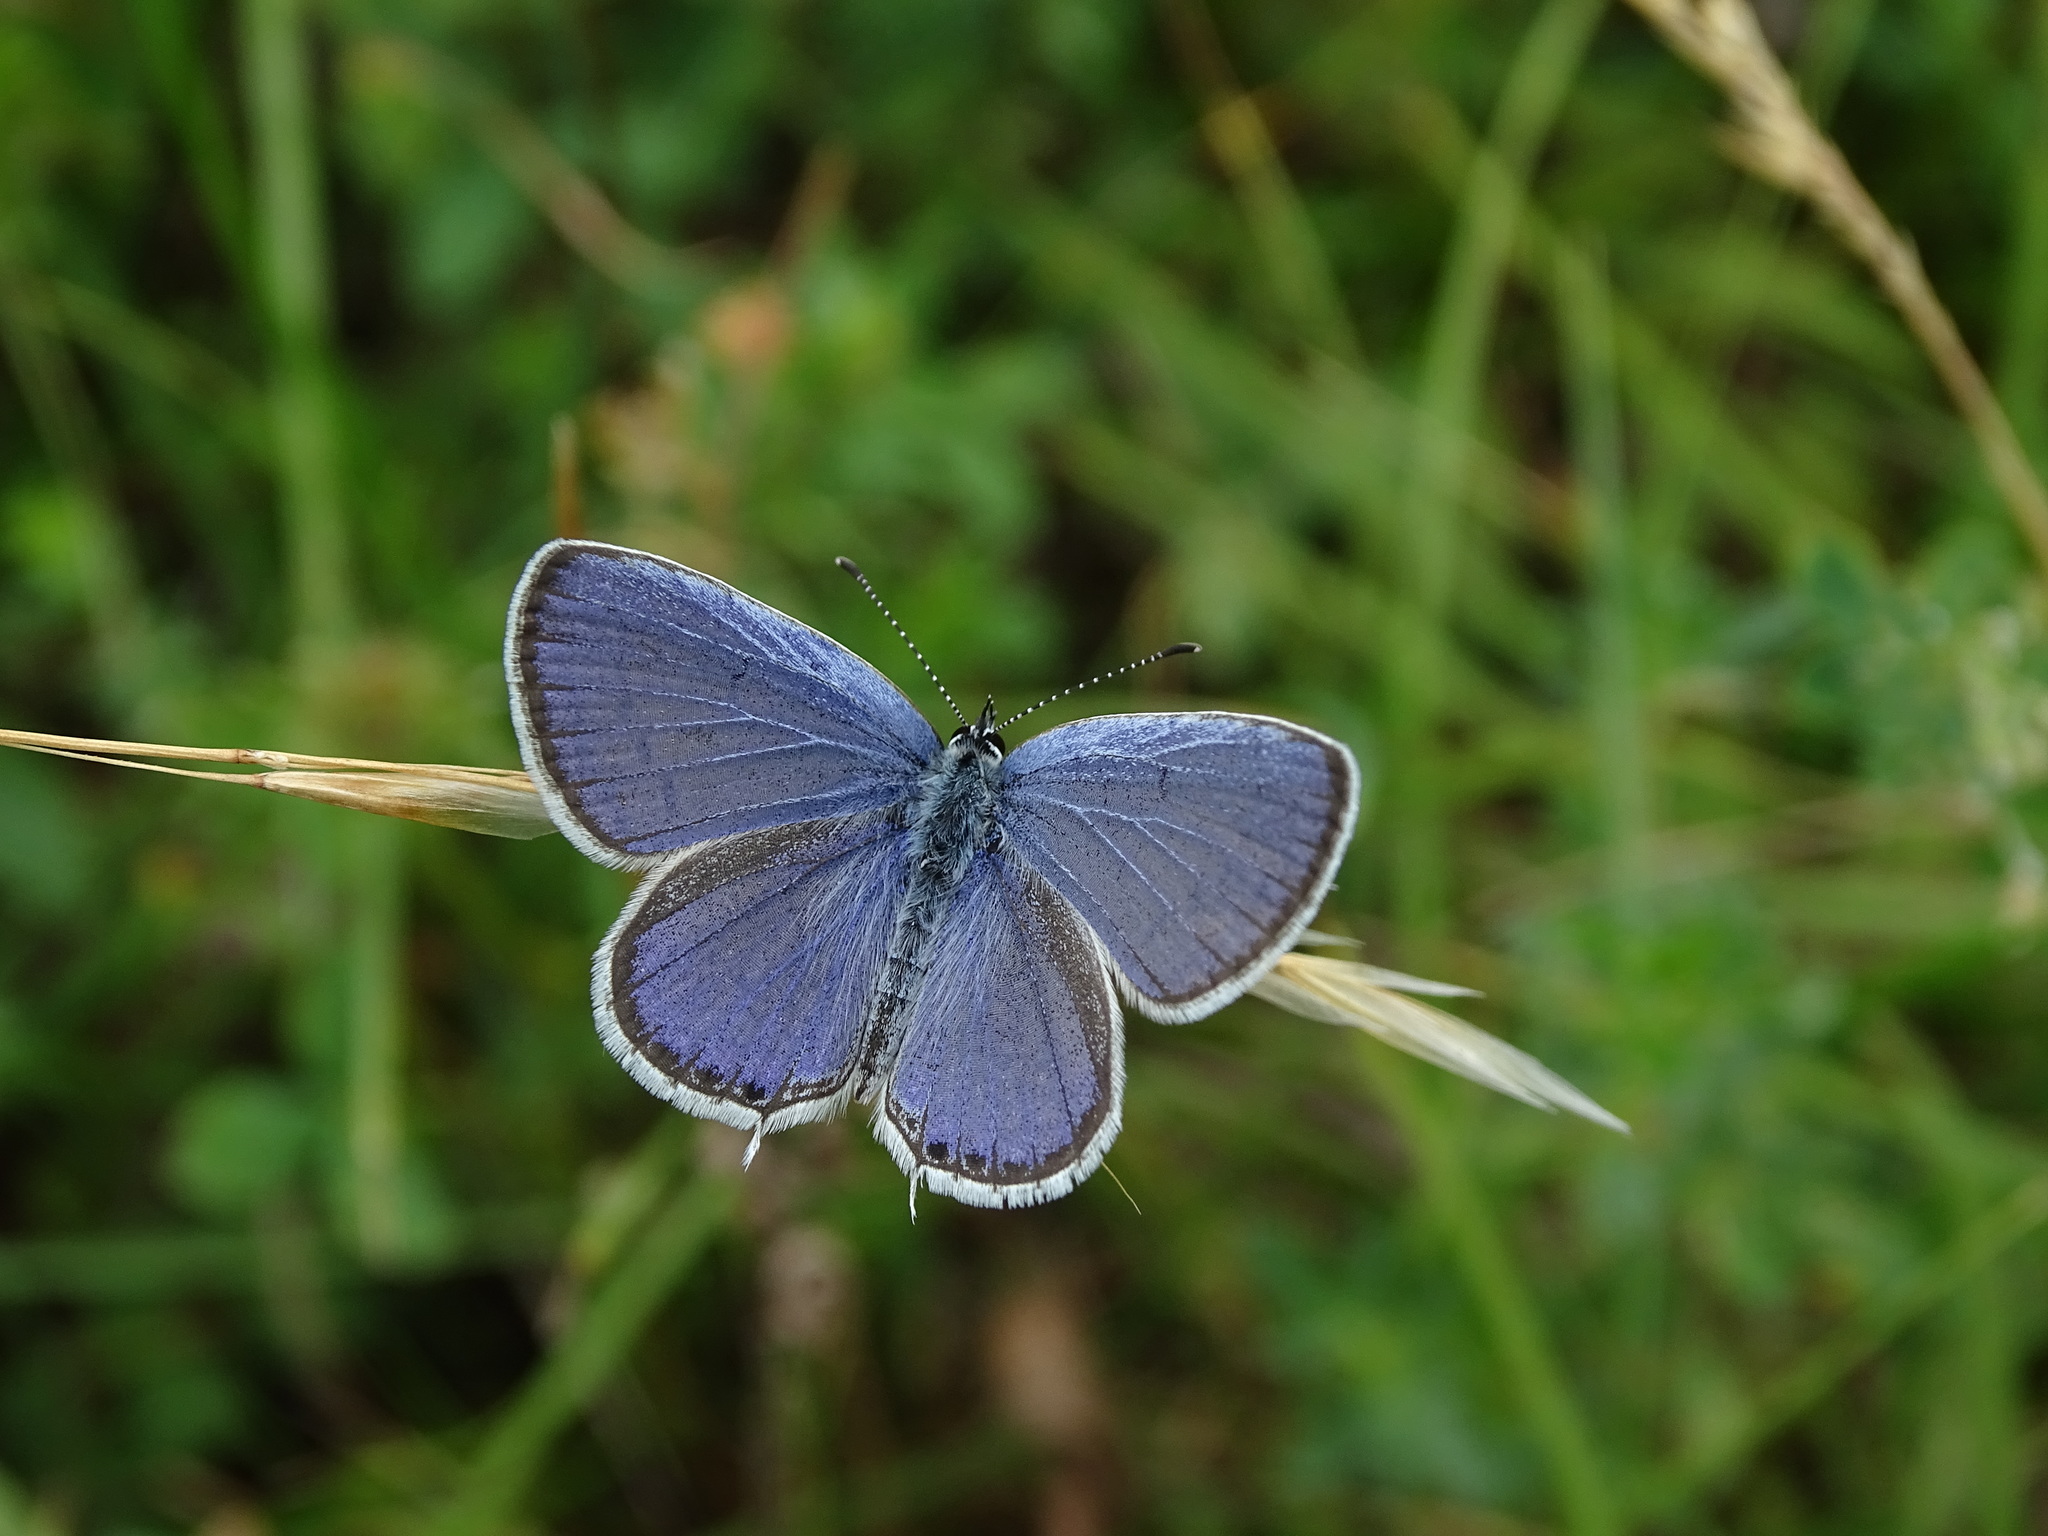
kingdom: Animalia
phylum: Arthropoda
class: Insecta
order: Lepidoptera
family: Lycaenidae
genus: Elkalyce
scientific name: Elkalyce argiades
